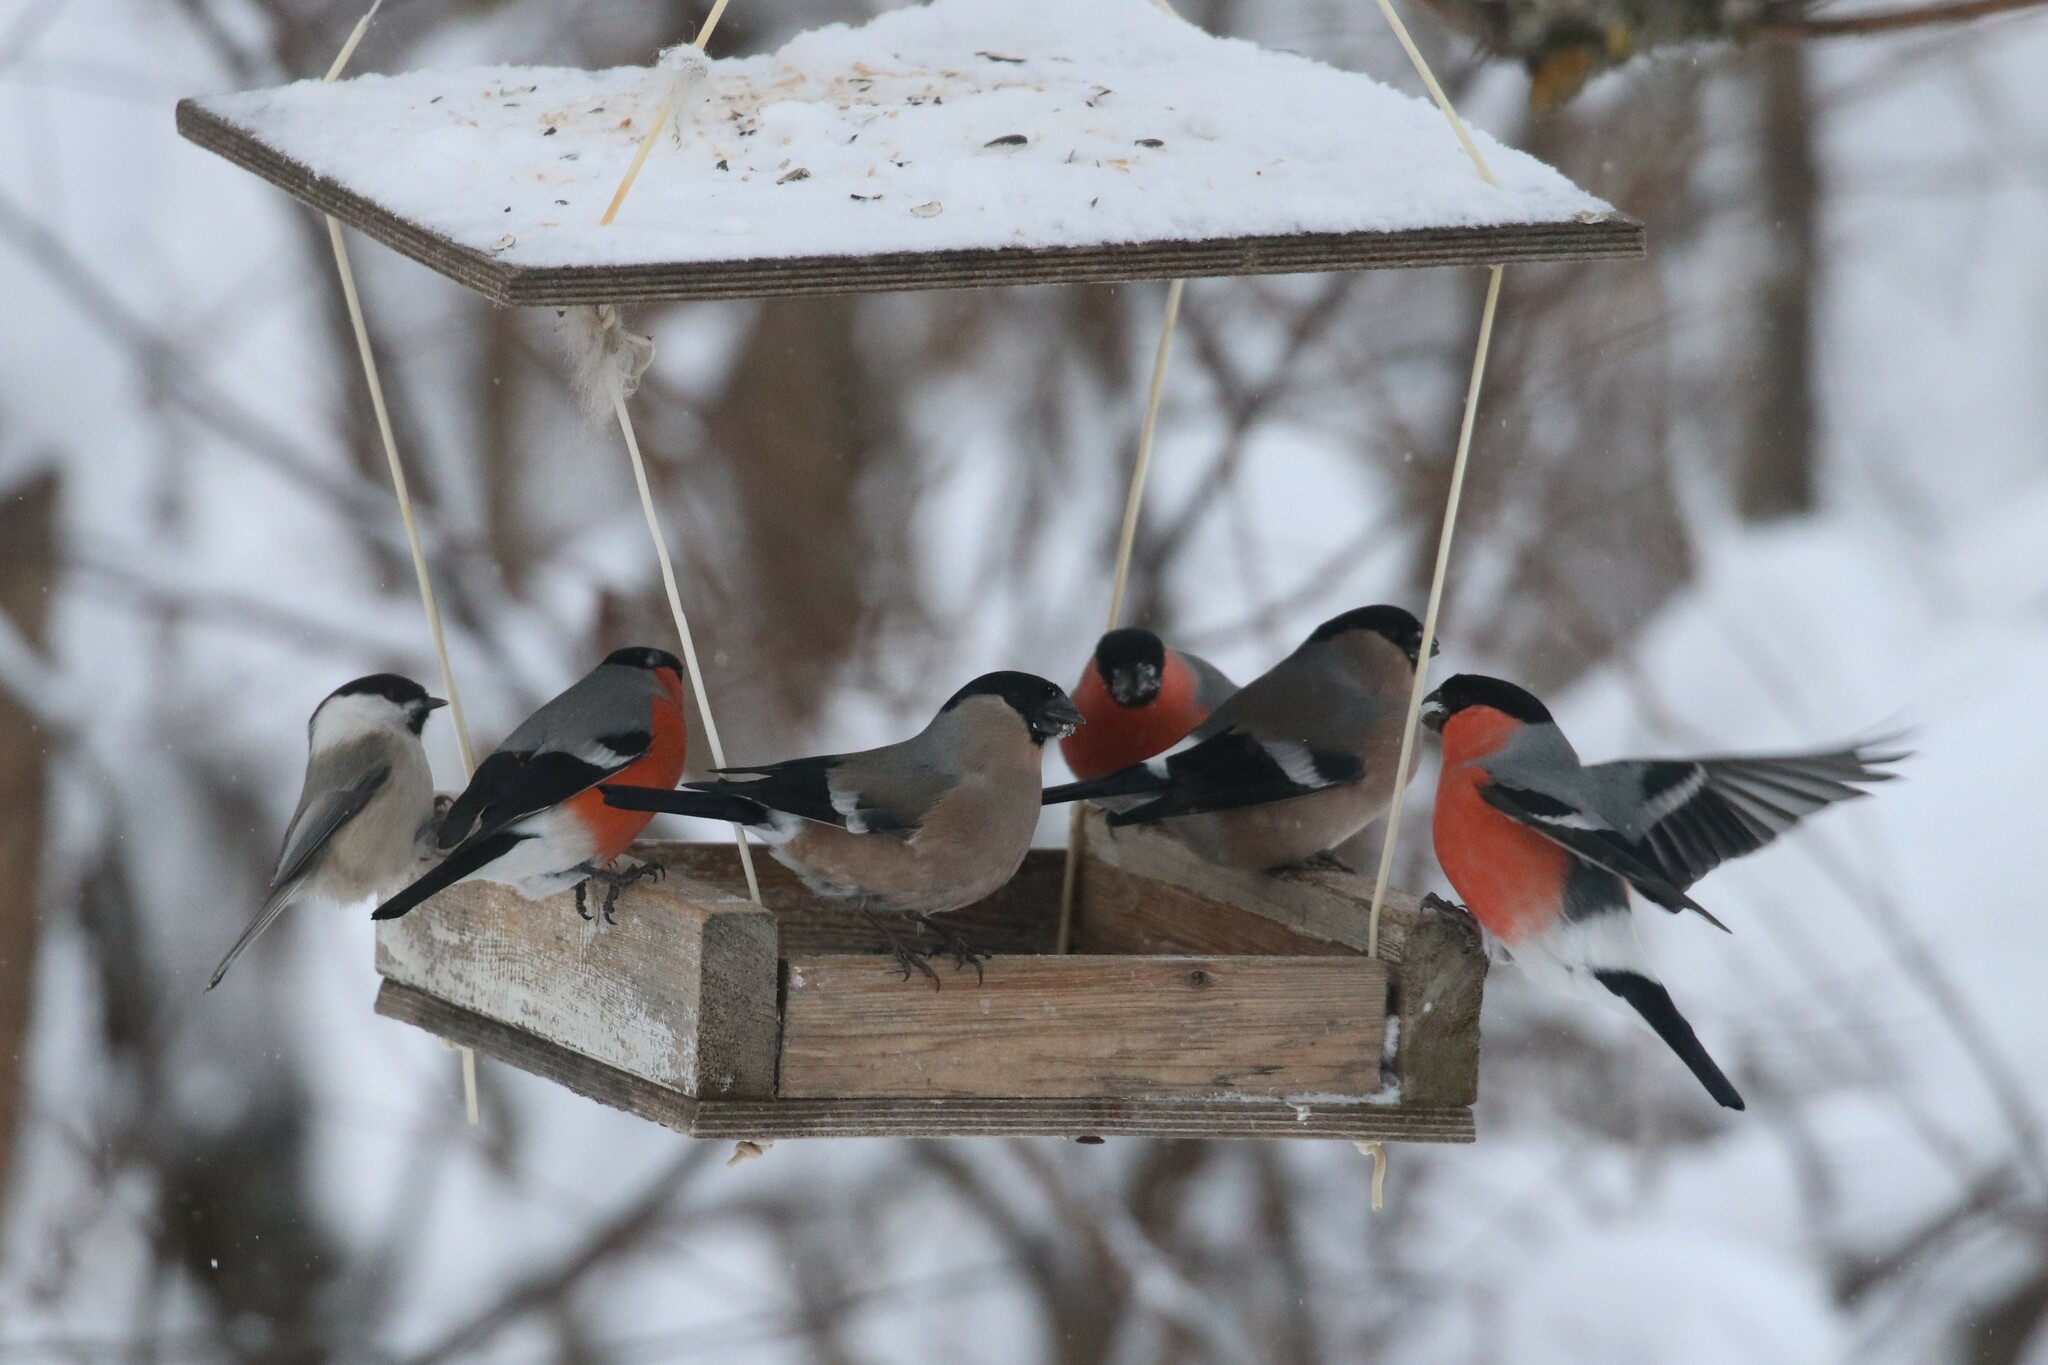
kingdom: Animalia
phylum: Chordata
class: Aves
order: Passeriformes
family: Fringillidae
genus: Pyrrhula
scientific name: Pyrrhula pyrrhula
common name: Eurasian bullfinch
